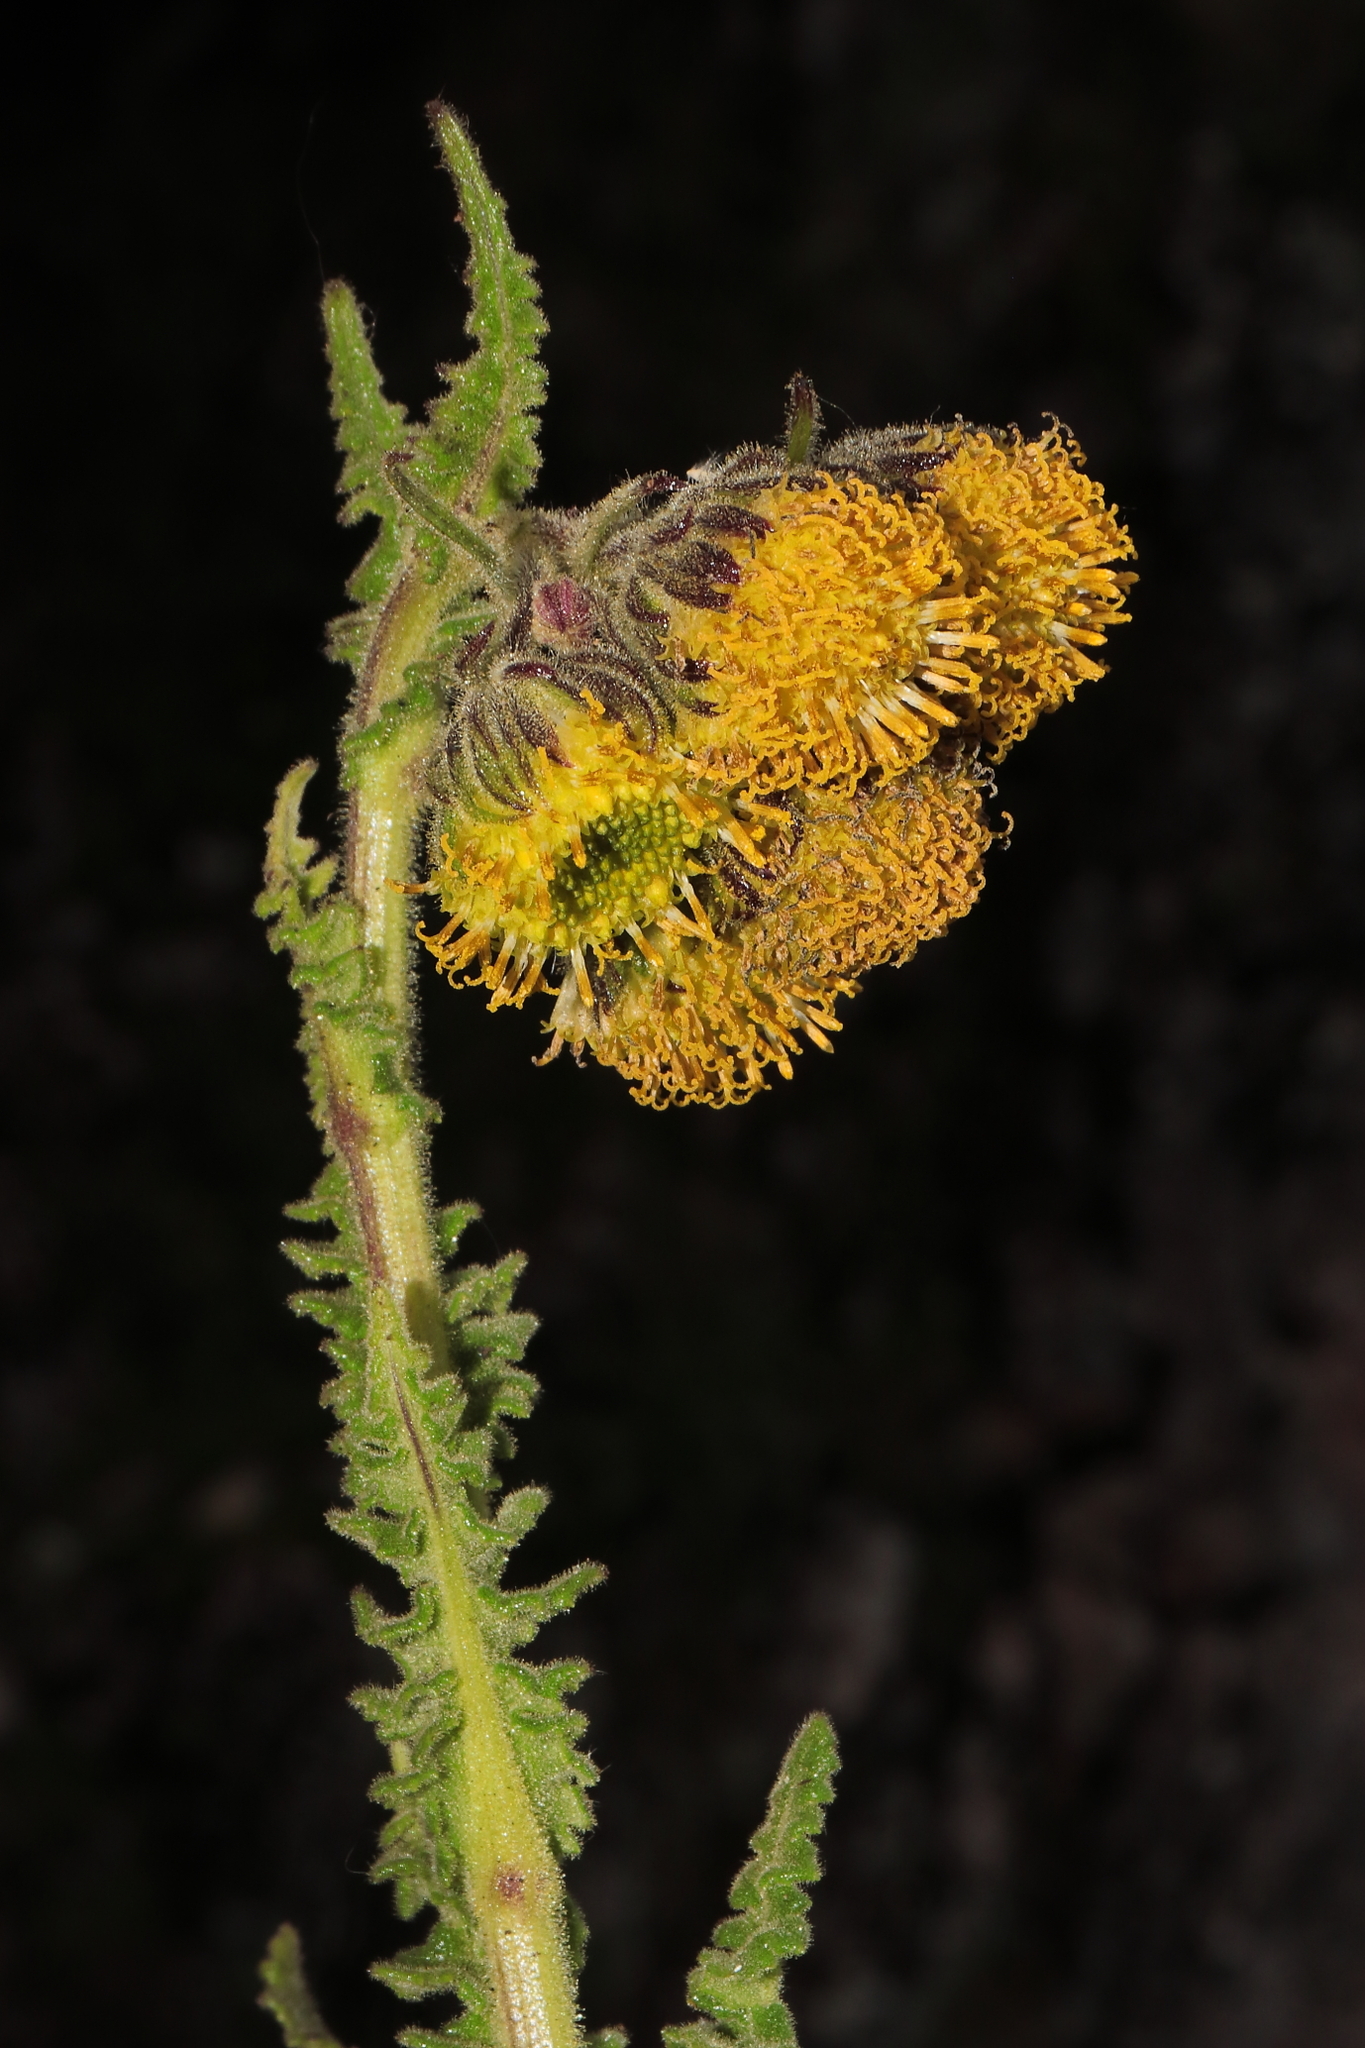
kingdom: Plantae
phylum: Tracheophyta
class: Magnoliopsida
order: Asterales
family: Asteraceae
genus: Senecio
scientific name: Senecio hyoseridifolius
